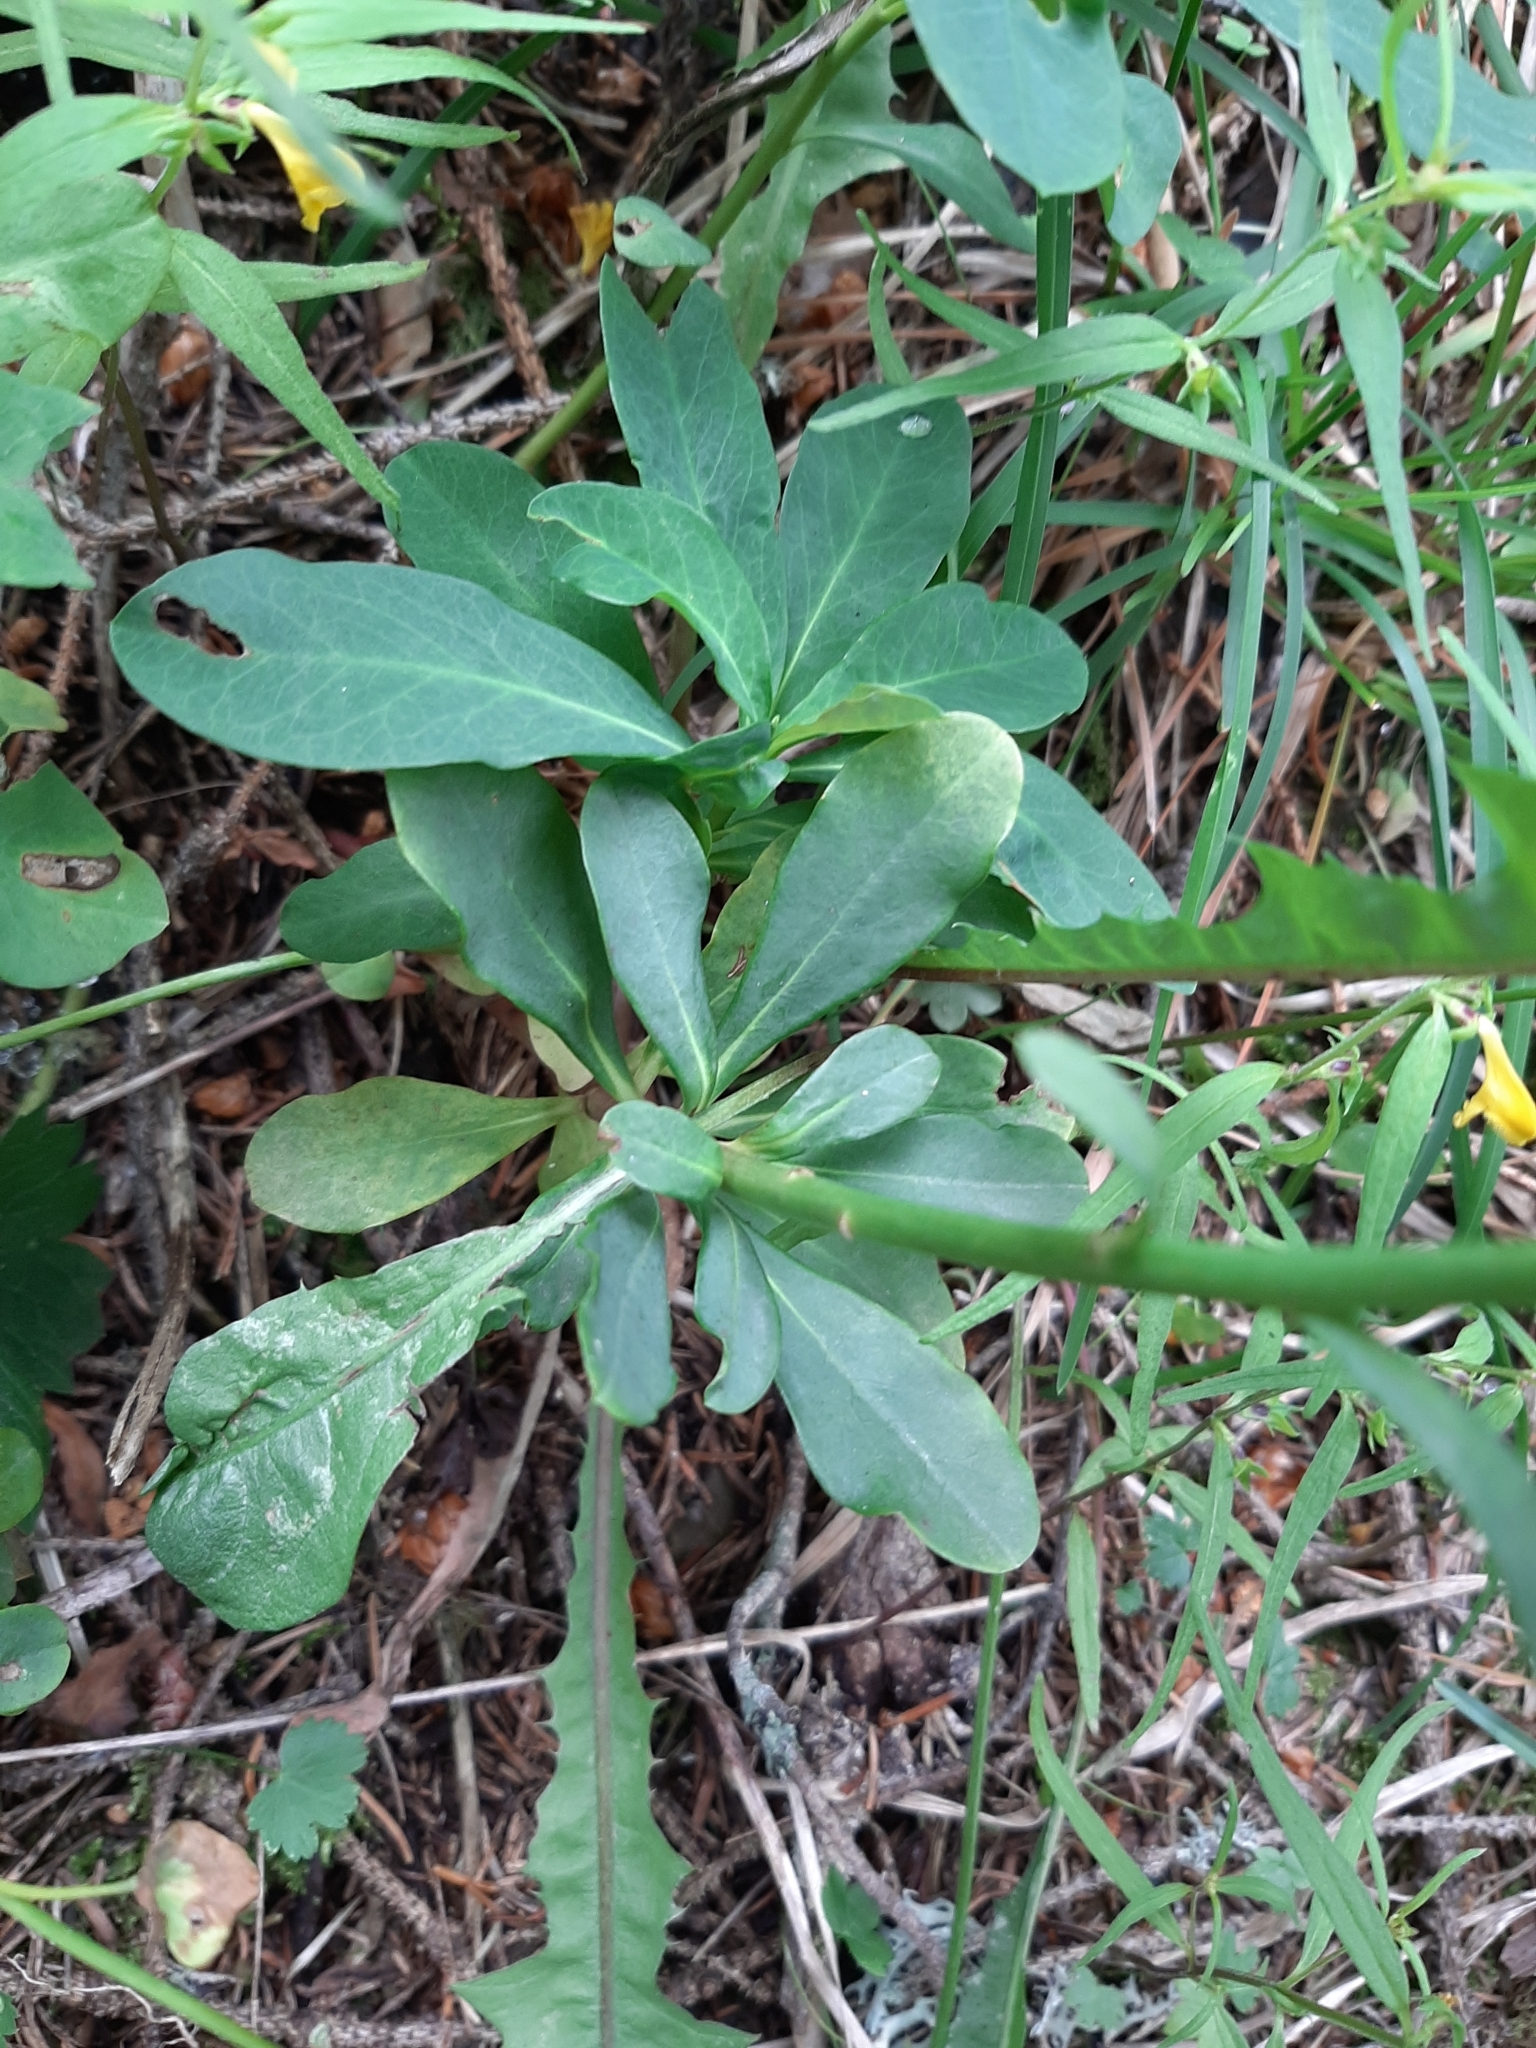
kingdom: Plantae
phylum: Tracheophyta
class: Magnoliopsida
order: Malpighiales
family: Euphorbiaceae
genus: Euphorbia
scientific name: Euphorbia amygdaloides
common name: Wood spurge
